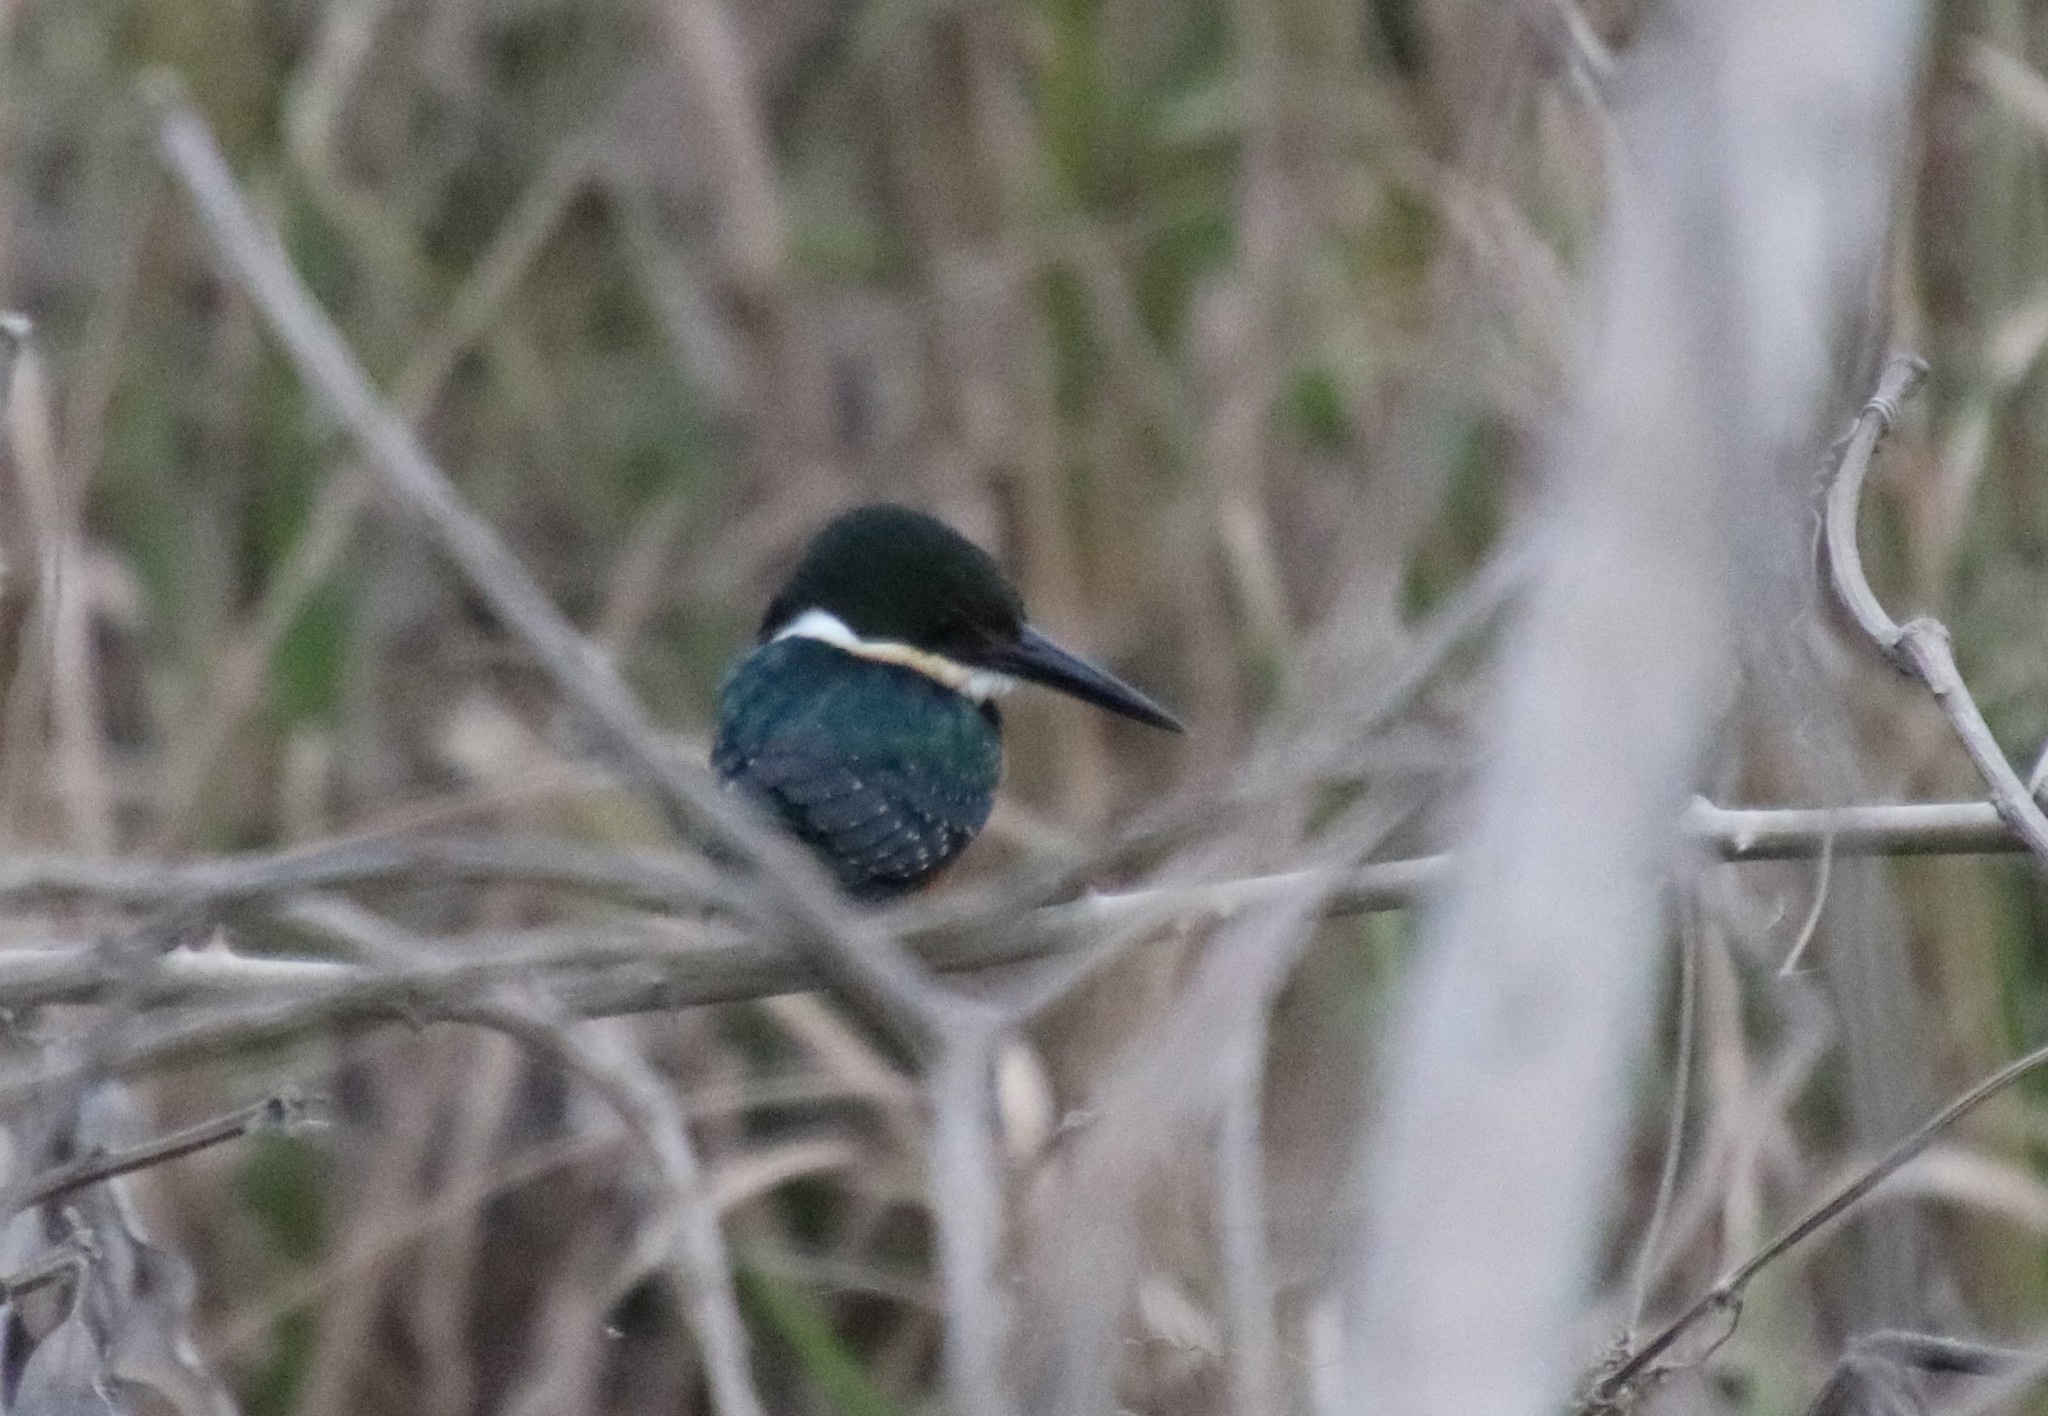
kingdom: Animalia
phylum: Chordata
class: Aves
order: Coraciiformes
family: Alcedinidae
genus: Chloroceryle
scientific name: Chloroceryle aenea
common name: American pygmy kingfisher
